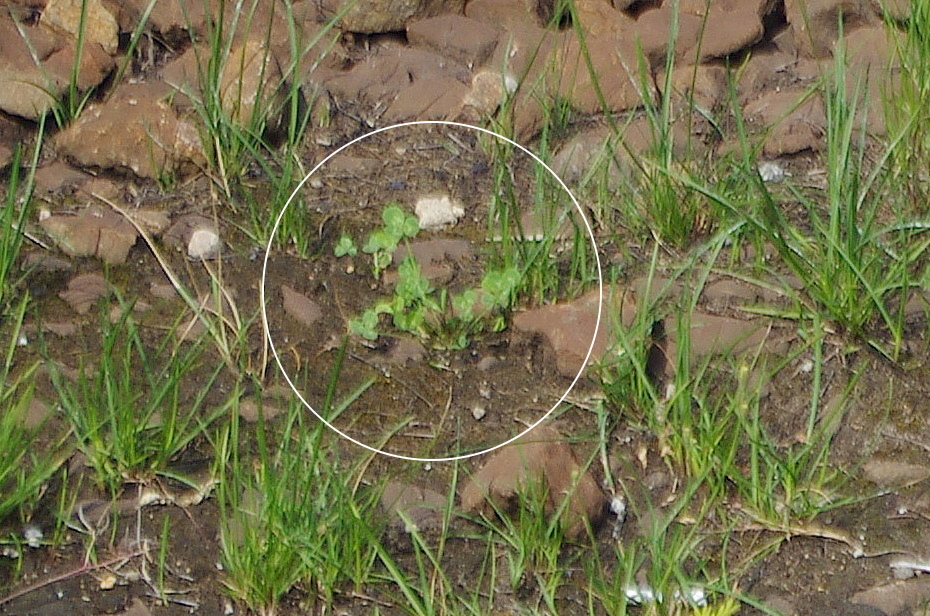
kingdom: Plantae
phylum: Tracheophyta
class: Magnoliopsida
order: Fabales
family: Fabaceae
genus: Trifolium
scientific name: Trifolium repens
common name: White clover
